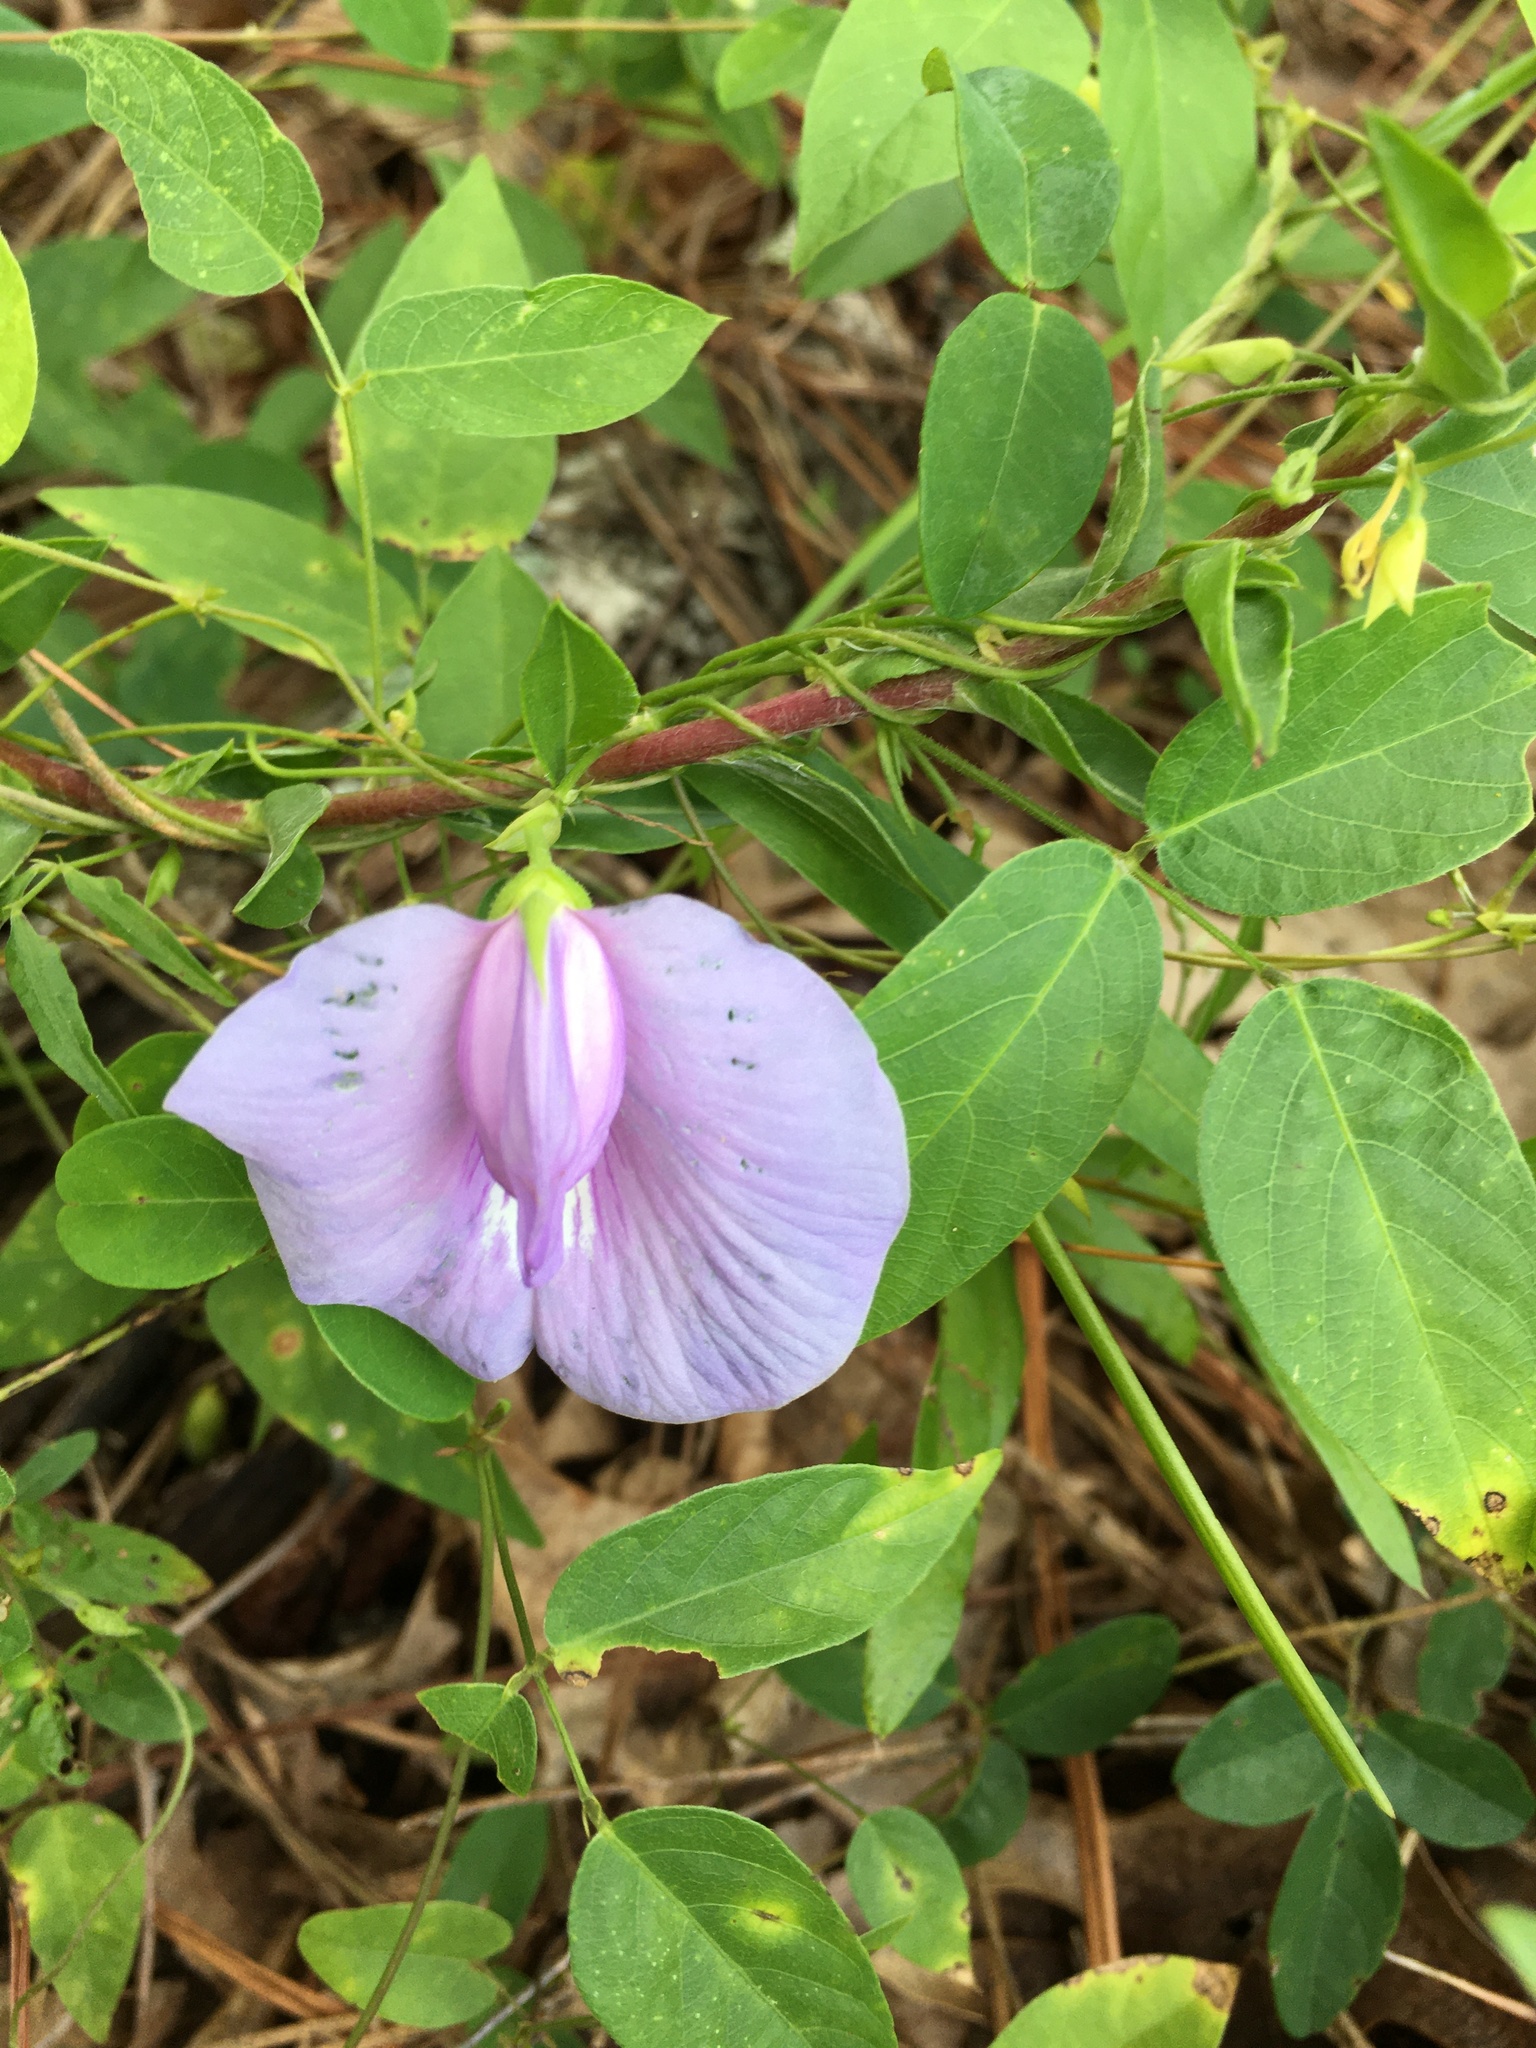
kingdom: Plantae
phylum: Tracheophyta
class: Magnoliopsida
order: Fabales
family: Fabaceae
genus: Centrosema
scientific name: Centrosema virginianum
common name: Butterfly-pea
